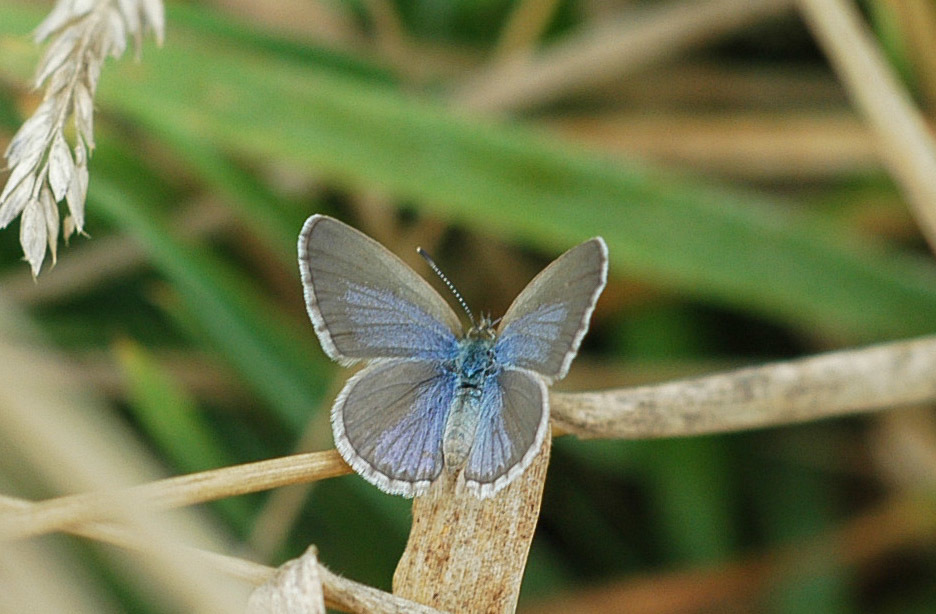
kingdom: Animalia
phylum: Arthropoda
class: Insecta
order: Lepidoptera
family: Lycaenidae
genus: Zizina
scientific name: Zizina labradus
